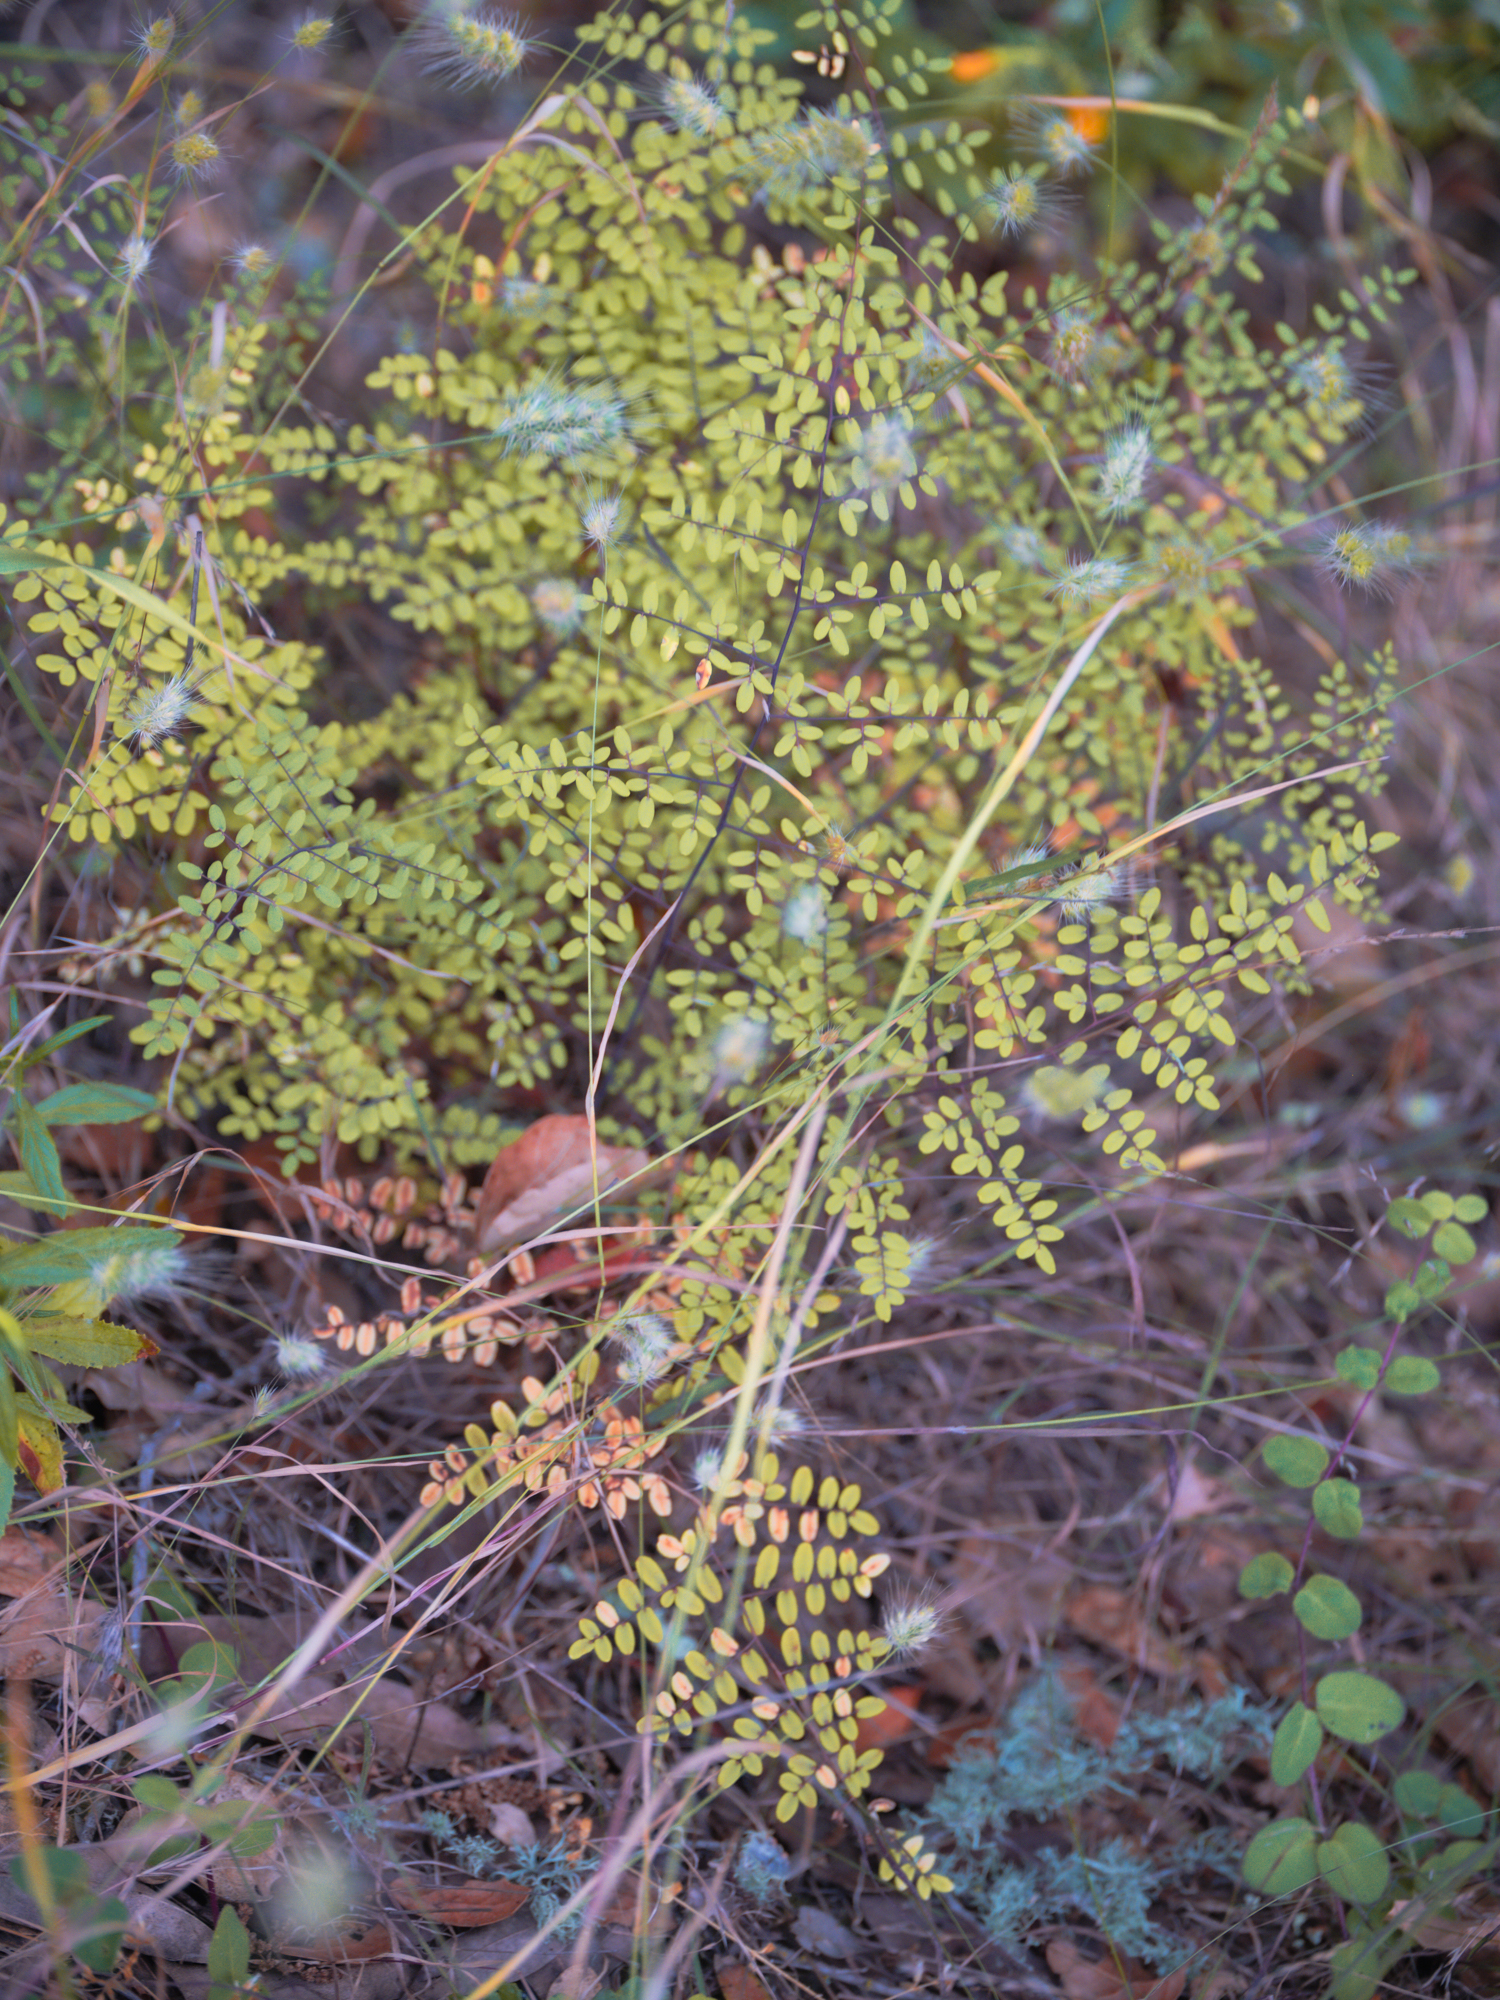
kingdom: Plantae
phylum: Tracheophyta
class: Polypodiopsida
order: Polypodiales
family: Pteridaceae
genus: Pellaea
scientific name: Pellaea andromedifolia
